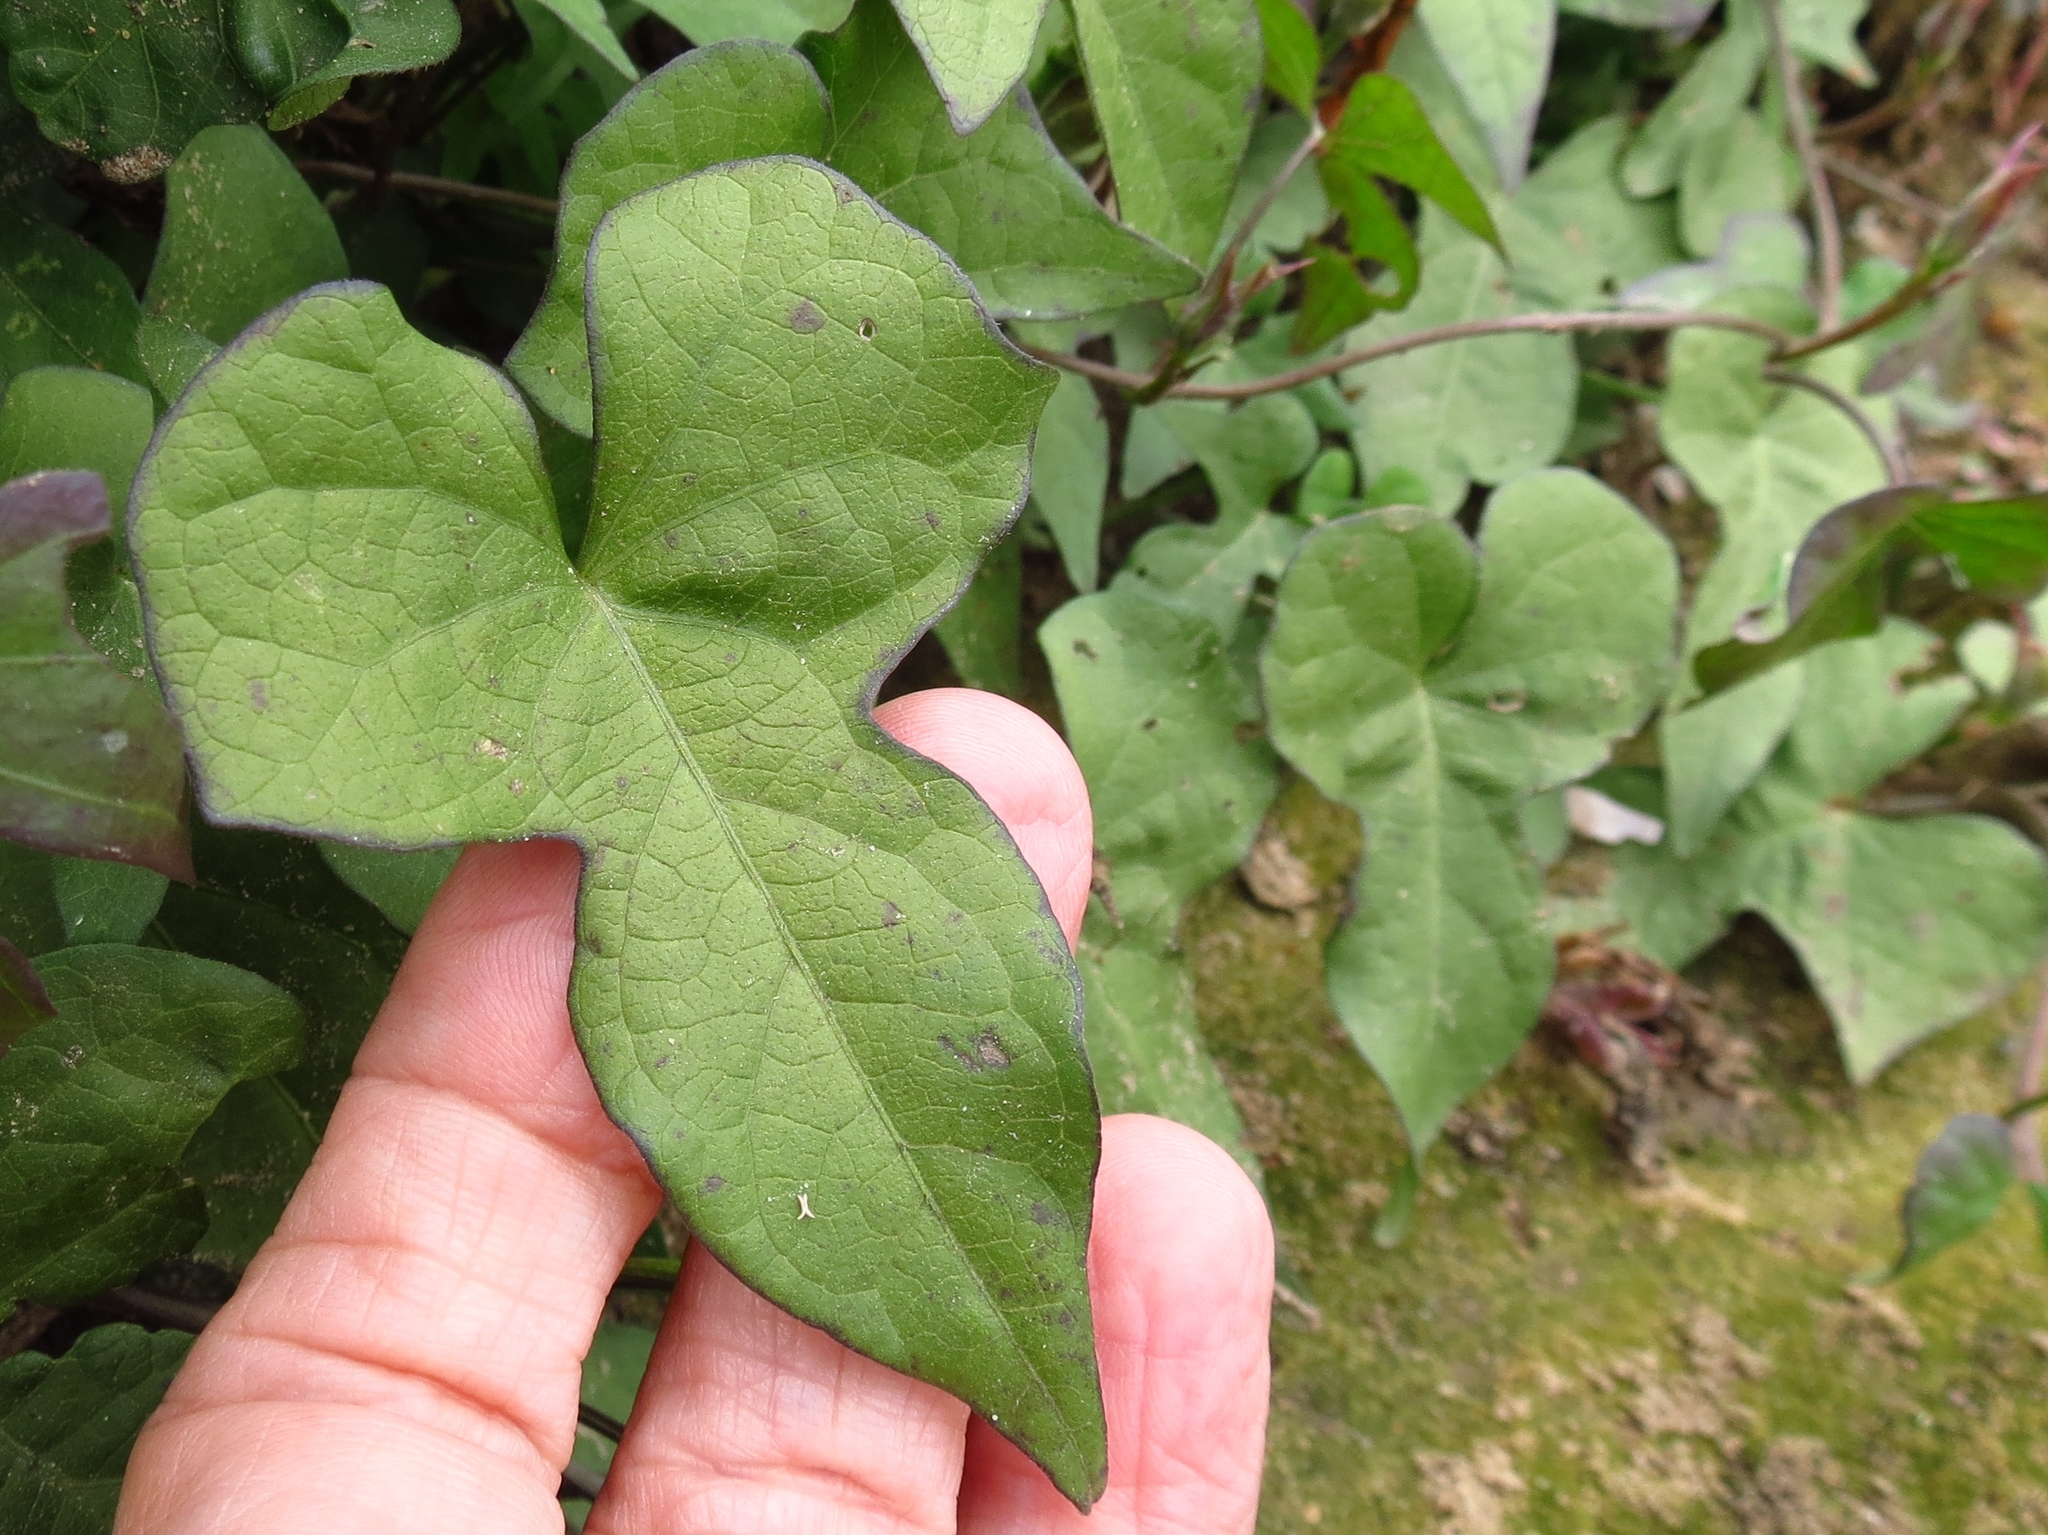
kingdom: Plantae
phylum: Tracheophyta
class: Magnoliopsida
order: Solanales
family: Convolvulaceae
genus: Ipomoea
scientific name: Ipomoea cordatotriloba
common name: Cotton morning glory
